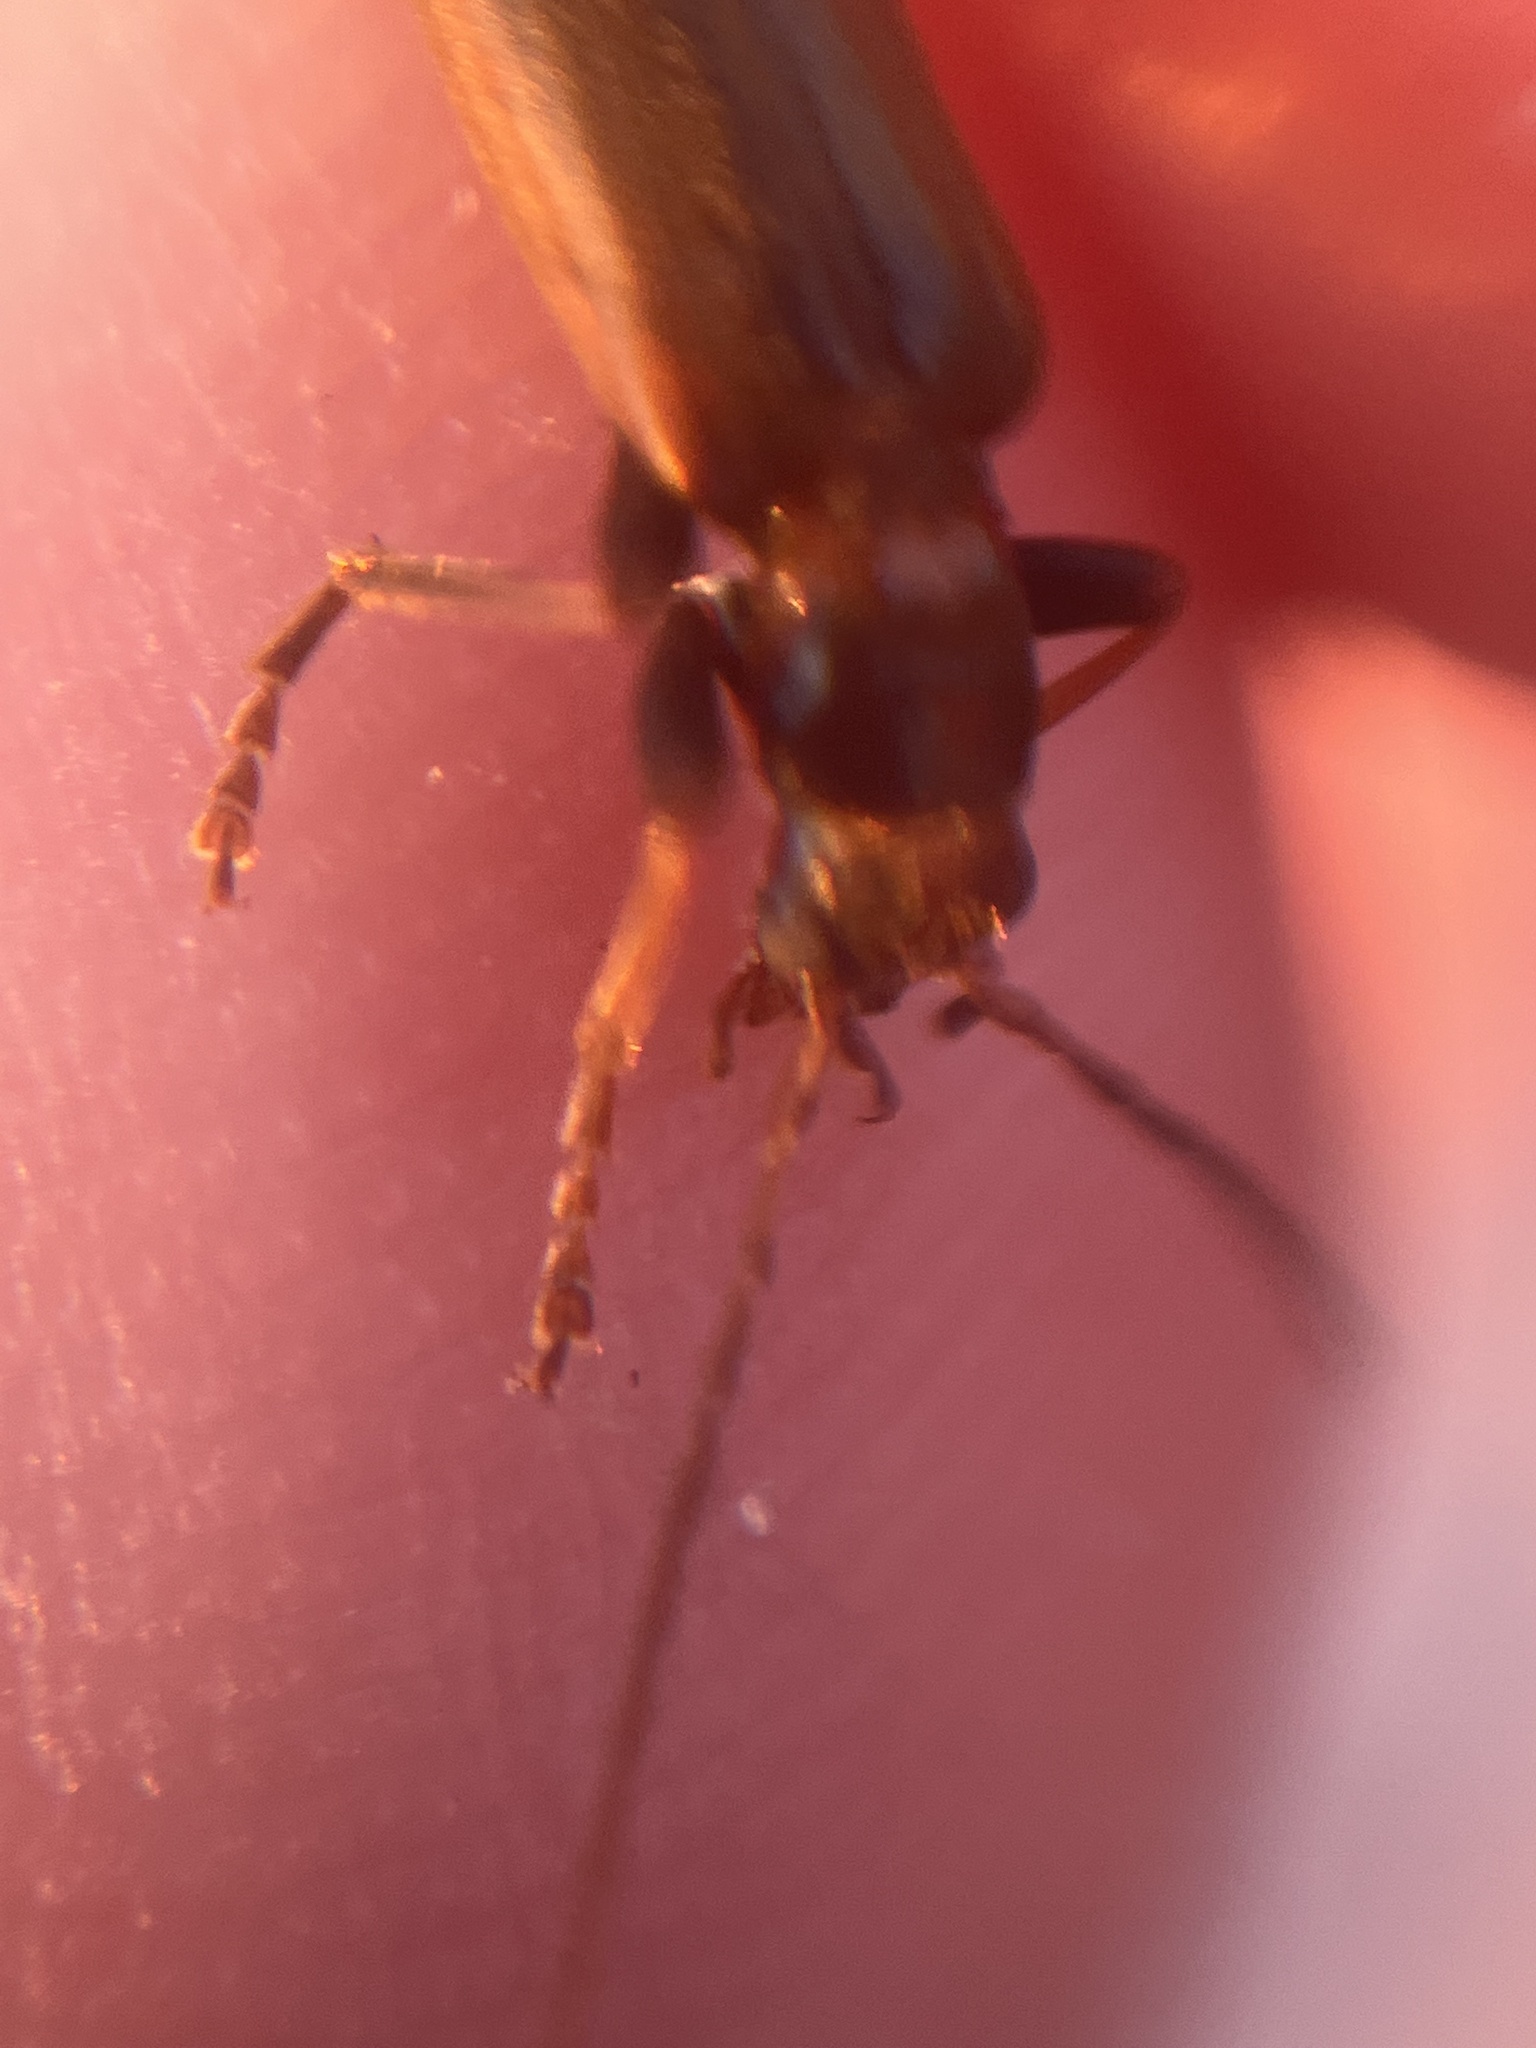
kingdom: Animalia
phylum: Arthropoda
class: Insecta
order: Coleoptera
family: Oedemeridae
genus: Nacerdes
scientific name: Nacerdes melanura
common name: Wharf borer
